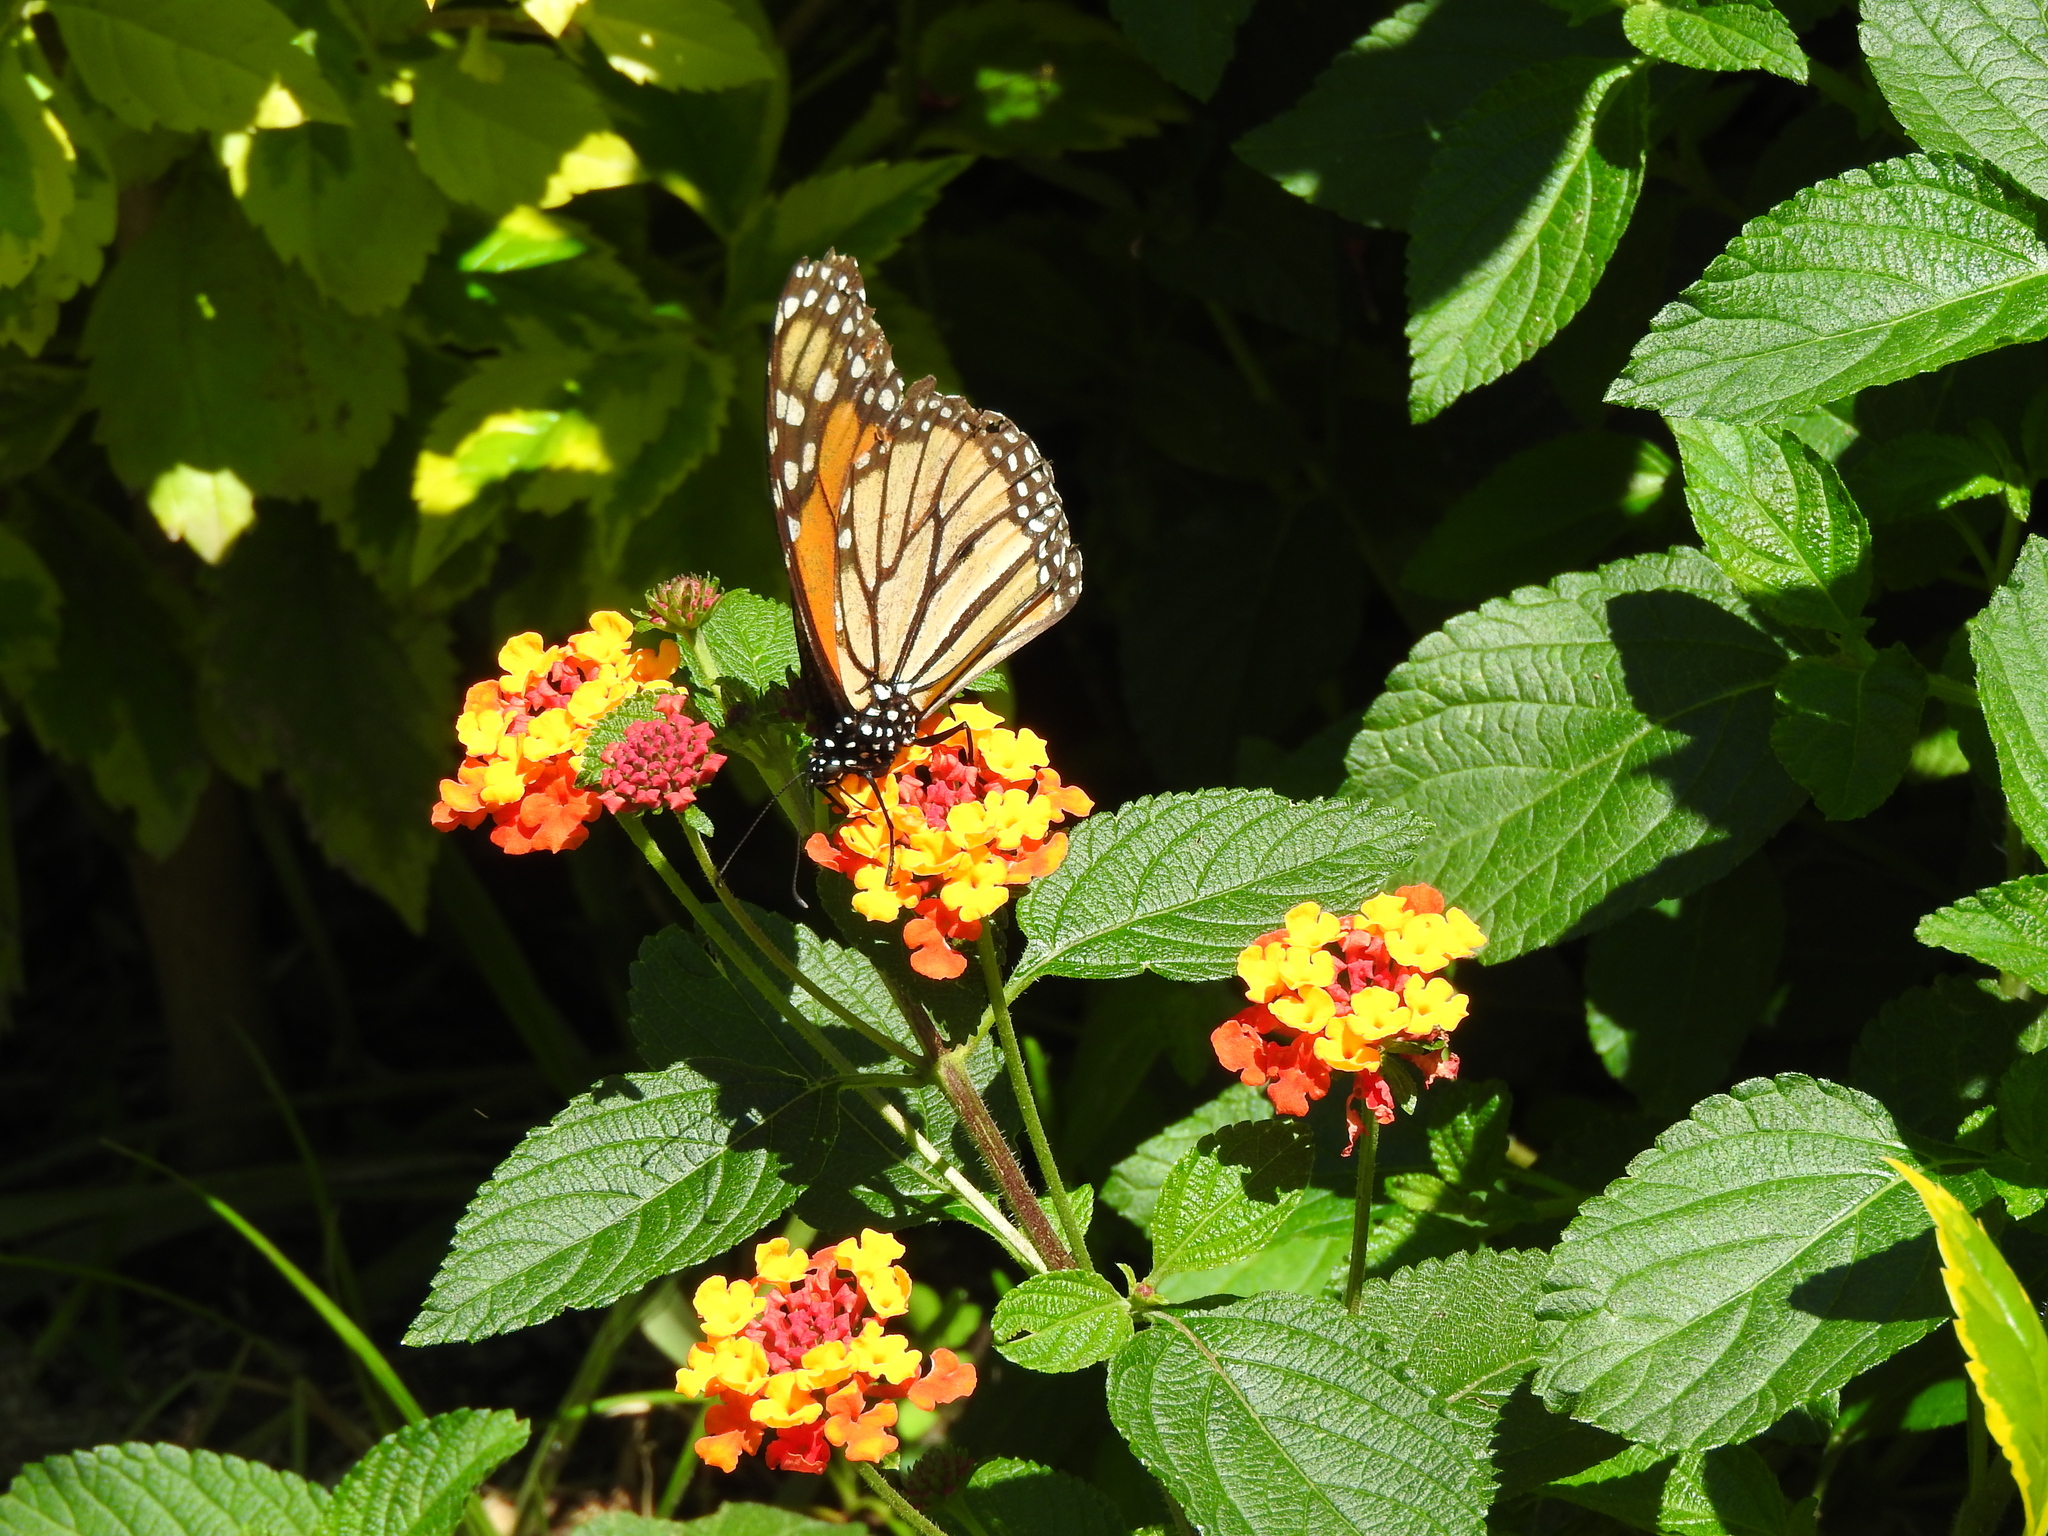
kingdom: Animalia
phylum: Arthropoda
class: Insecta
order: Lepidoptera
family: Nymphalidae
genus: Danaus
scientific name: Danaus plexippus
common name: Monarch
